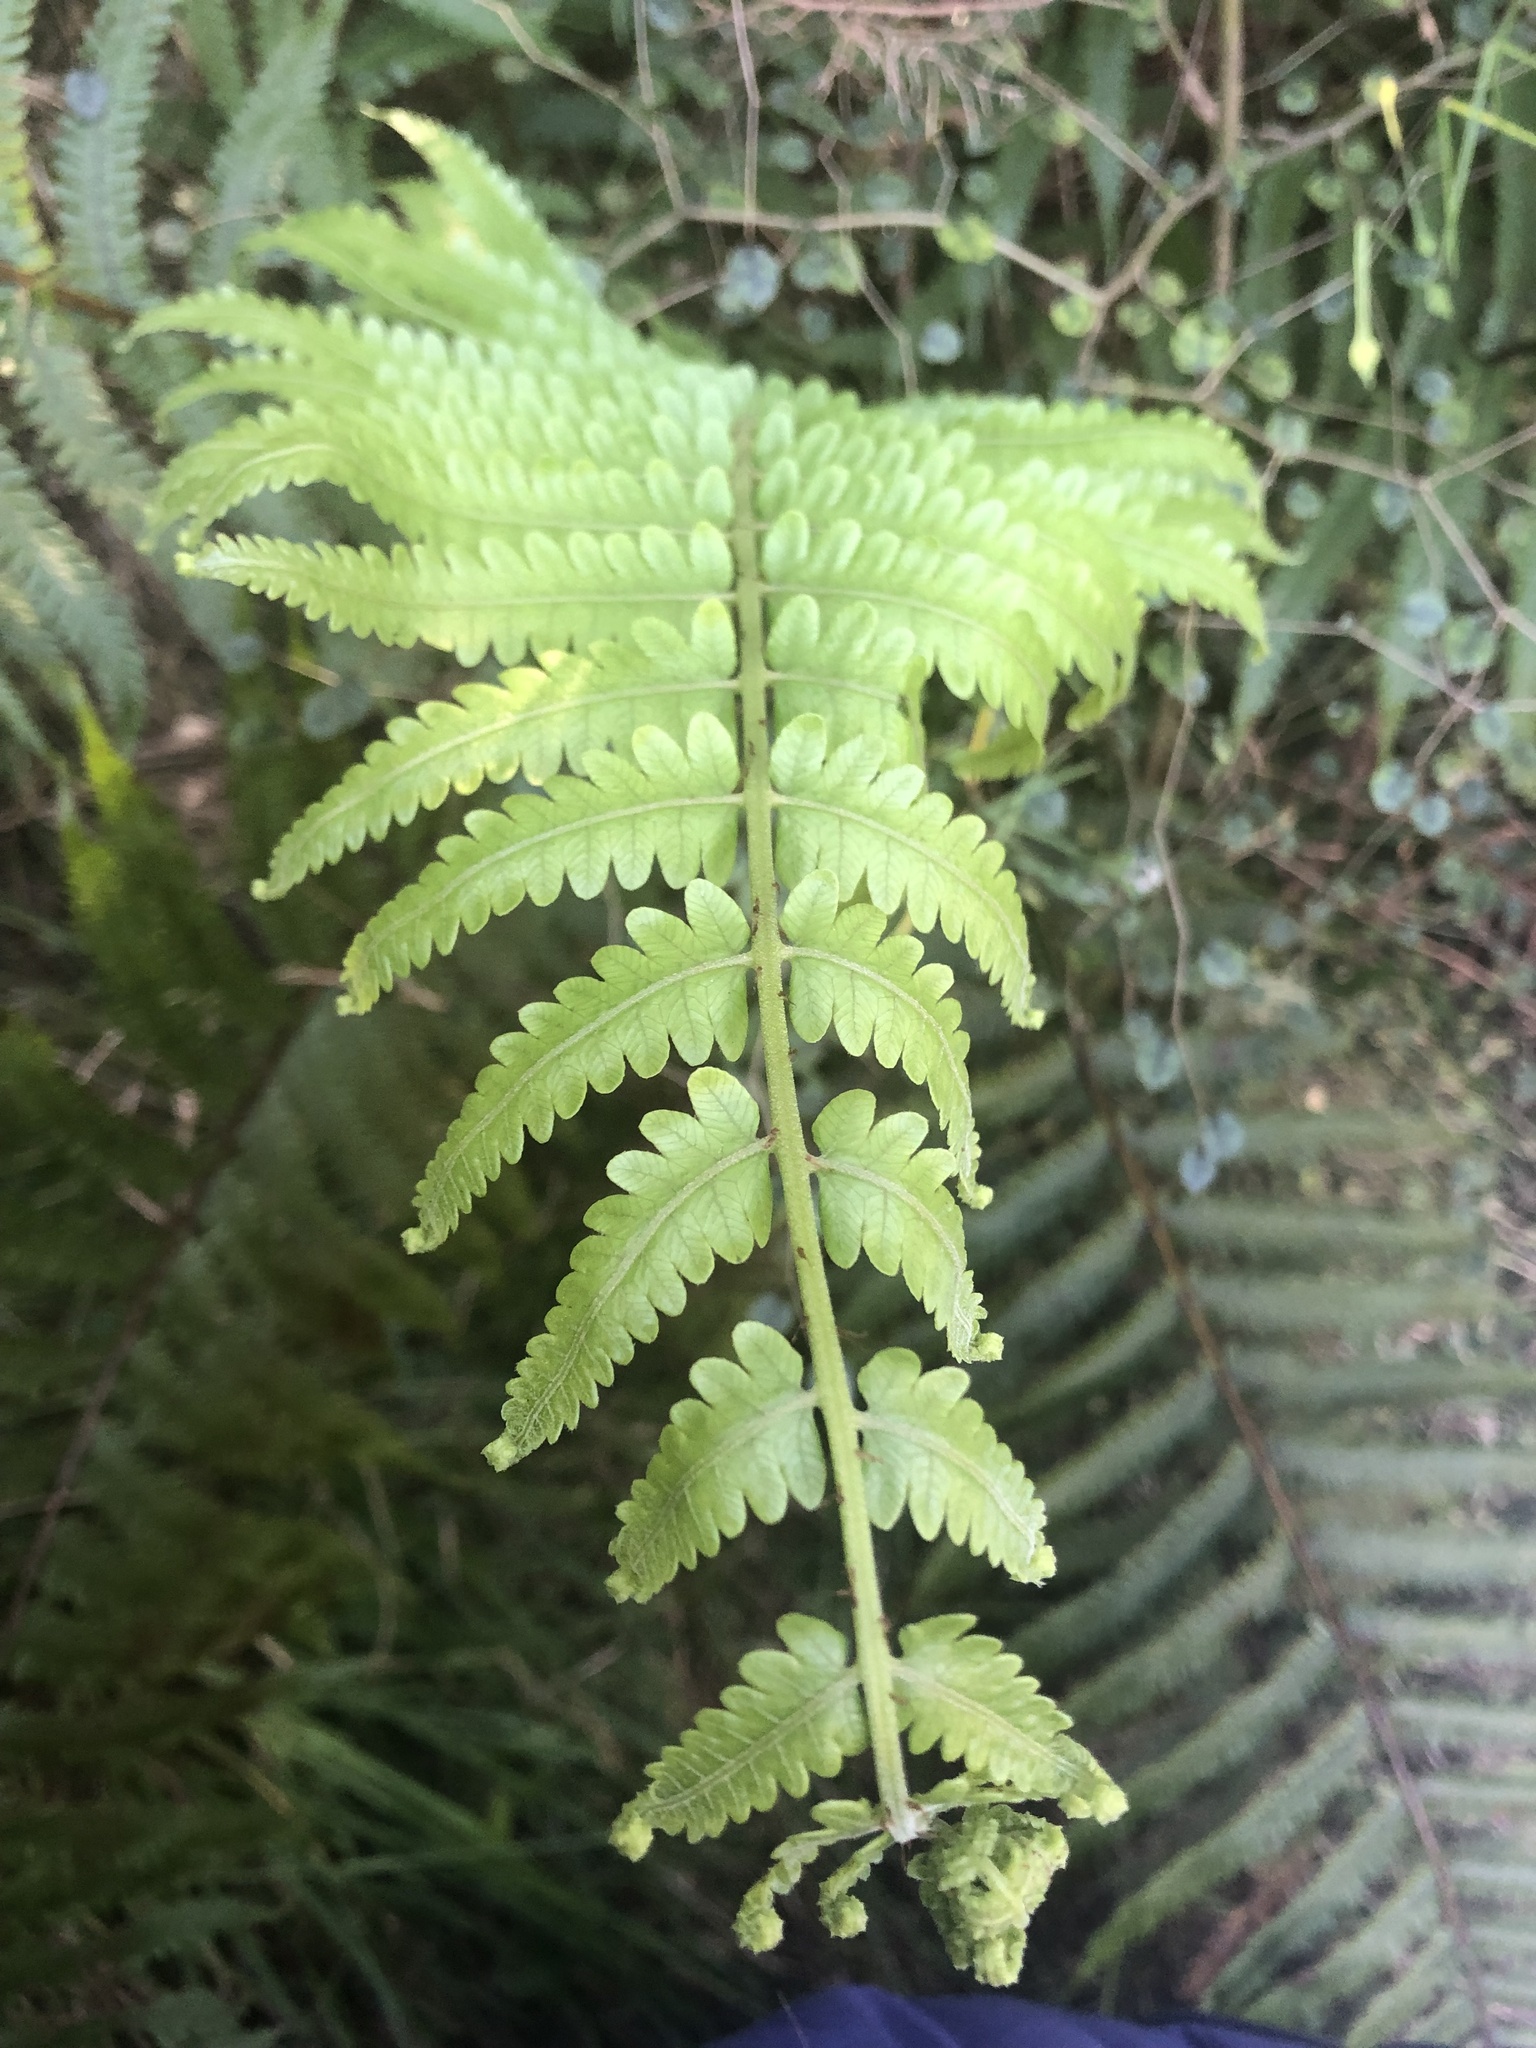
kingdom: Plantae
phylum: Tracheophyta
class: Polypodiopsida
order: Polypodiales
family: Thelypteridaceae
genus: Pakau
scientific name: Pakau pennigera
